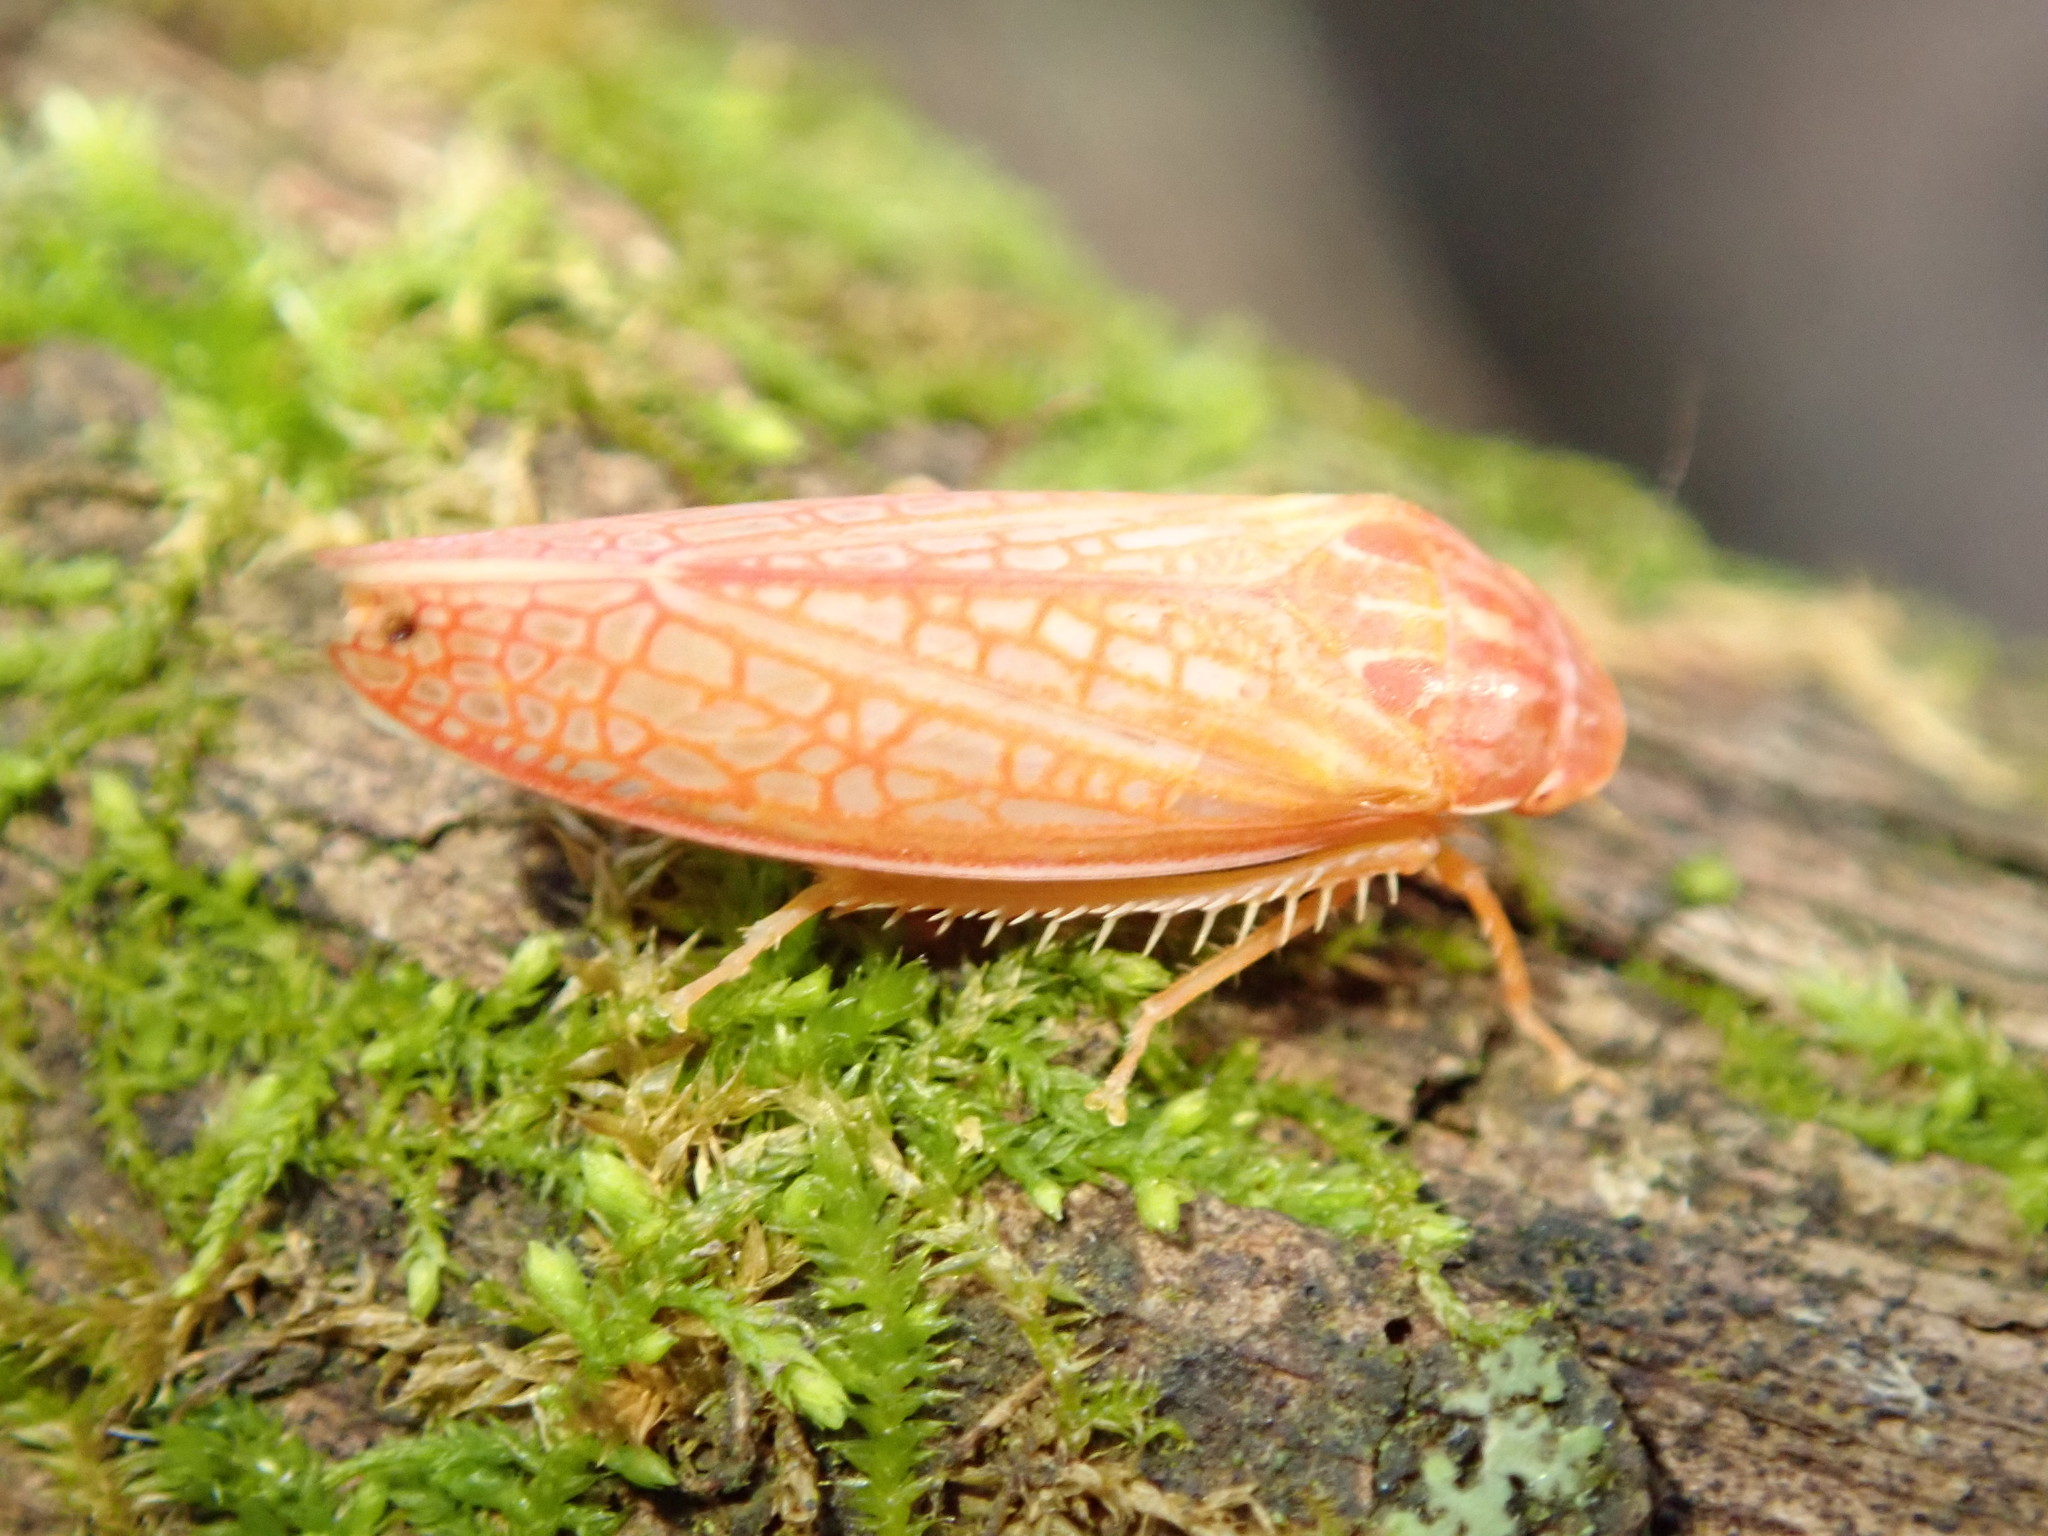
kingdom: Animalia
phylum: Arthropoda
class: Insecta
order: Hemiptera
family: Cicadellidae
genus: Gyponana
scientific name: Gyponana gladia
